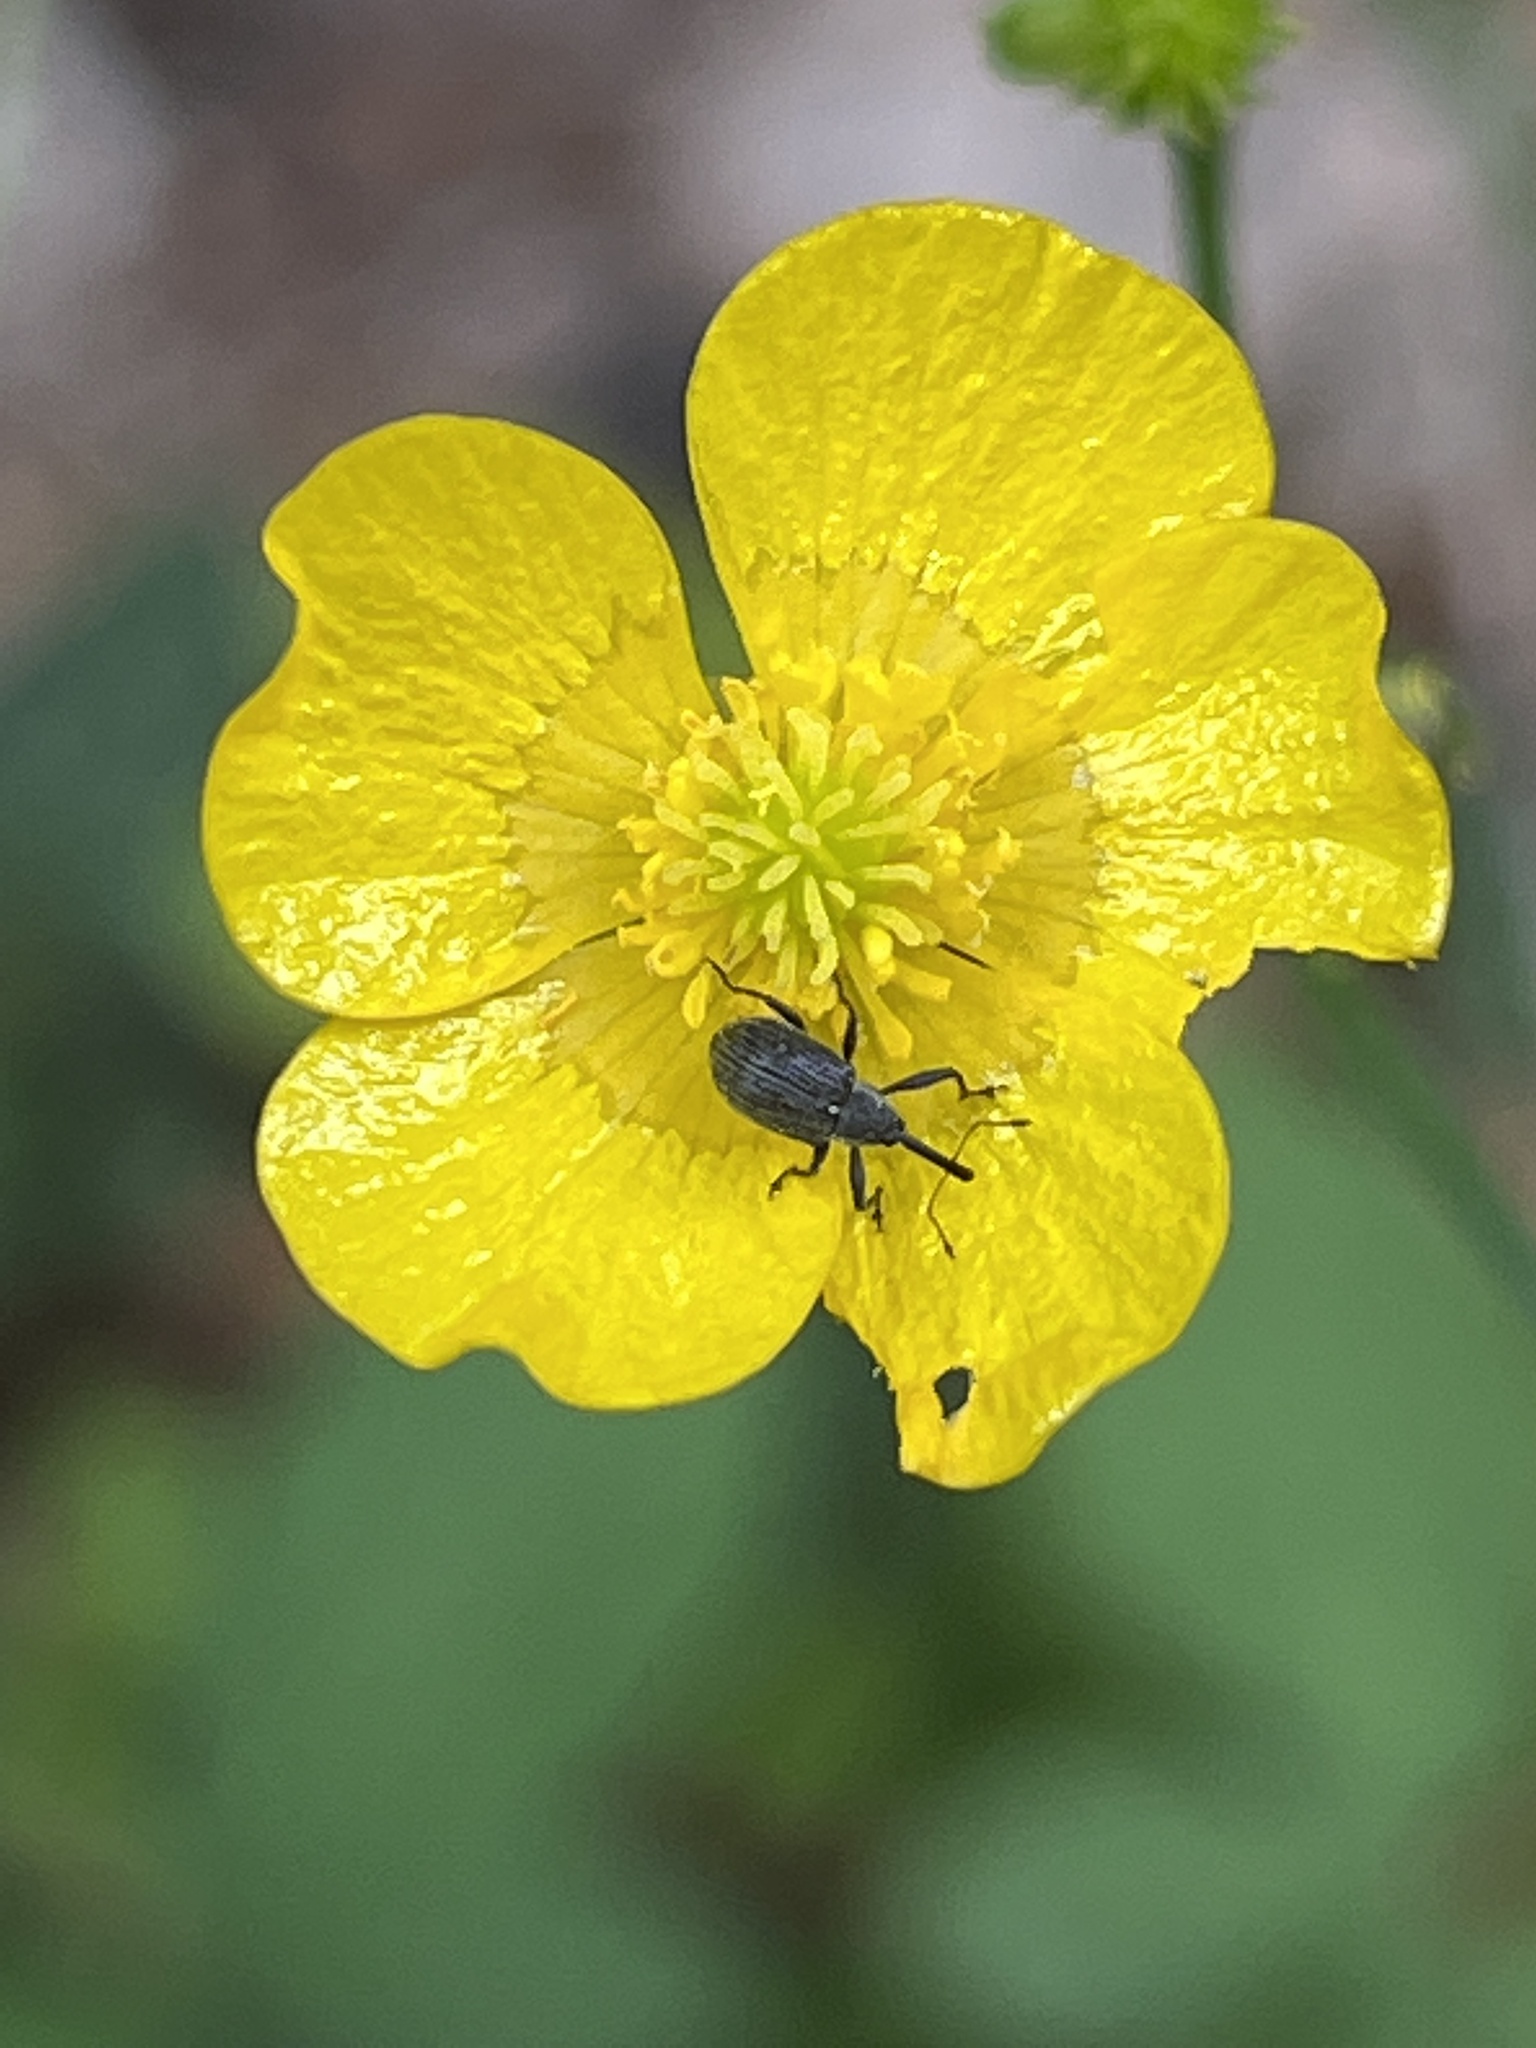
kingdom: Animalia
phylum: Arthropoda
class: Insecta
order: Coleoptera
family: Curculionidae
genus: Anthonomus
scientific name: Anthonomus rubi
